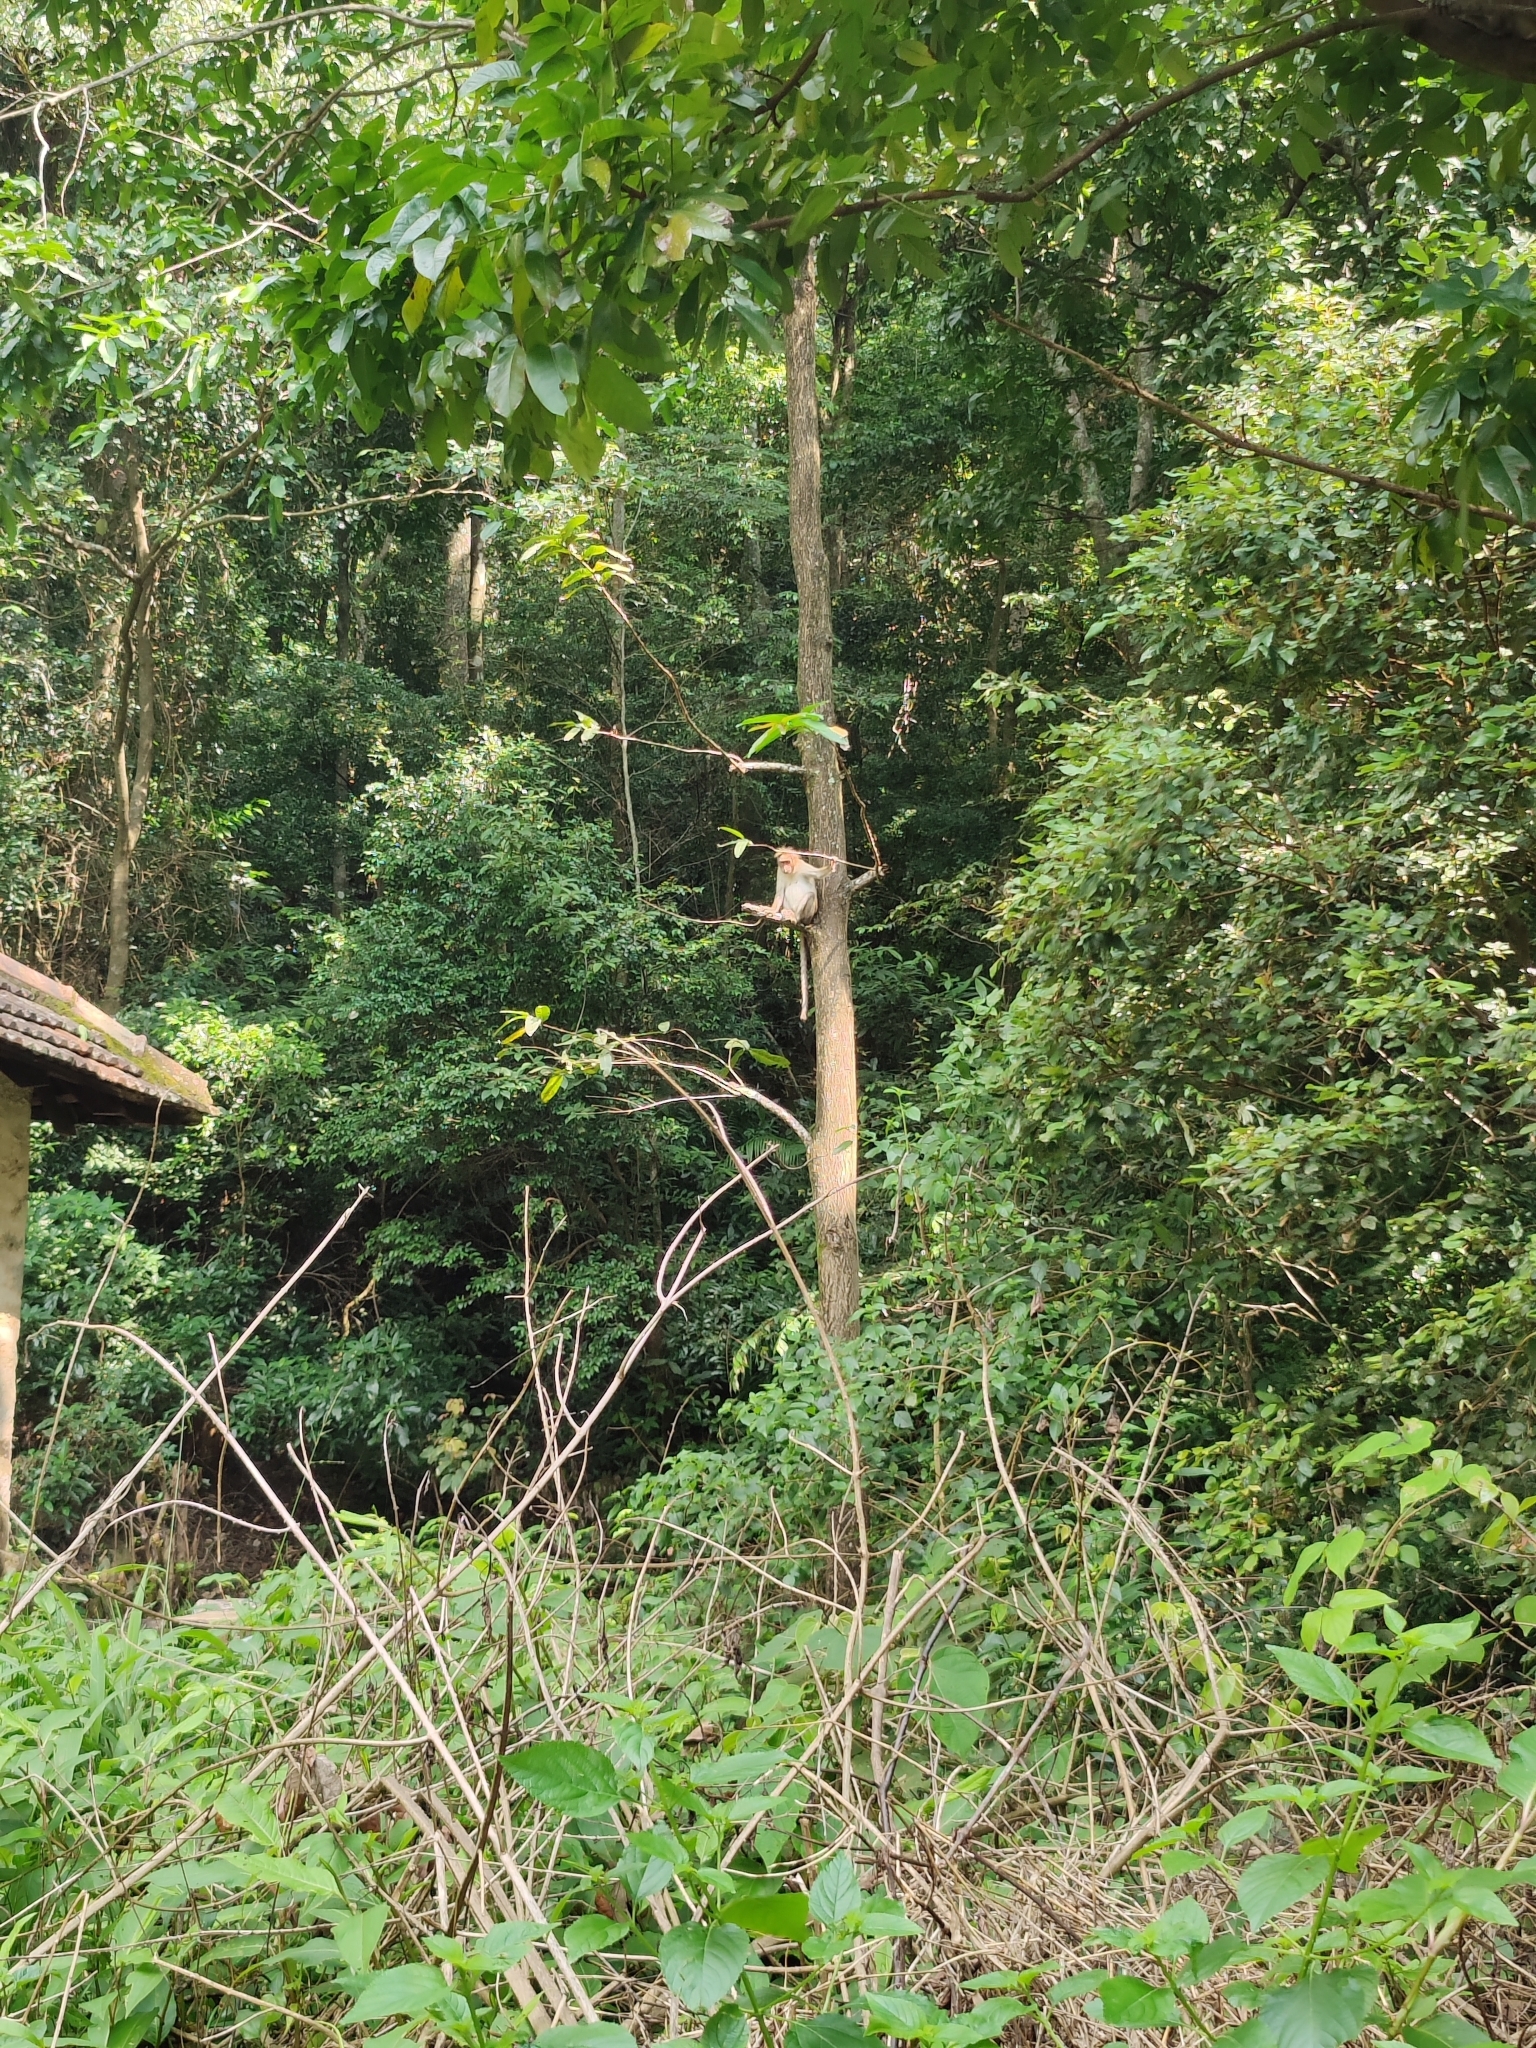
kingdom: Animalia
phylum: Chordata
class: Mammalia
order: Primates
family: Cercopithecidae
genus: Macaca
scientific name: Macaca radiata
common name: Bonnet macaque
